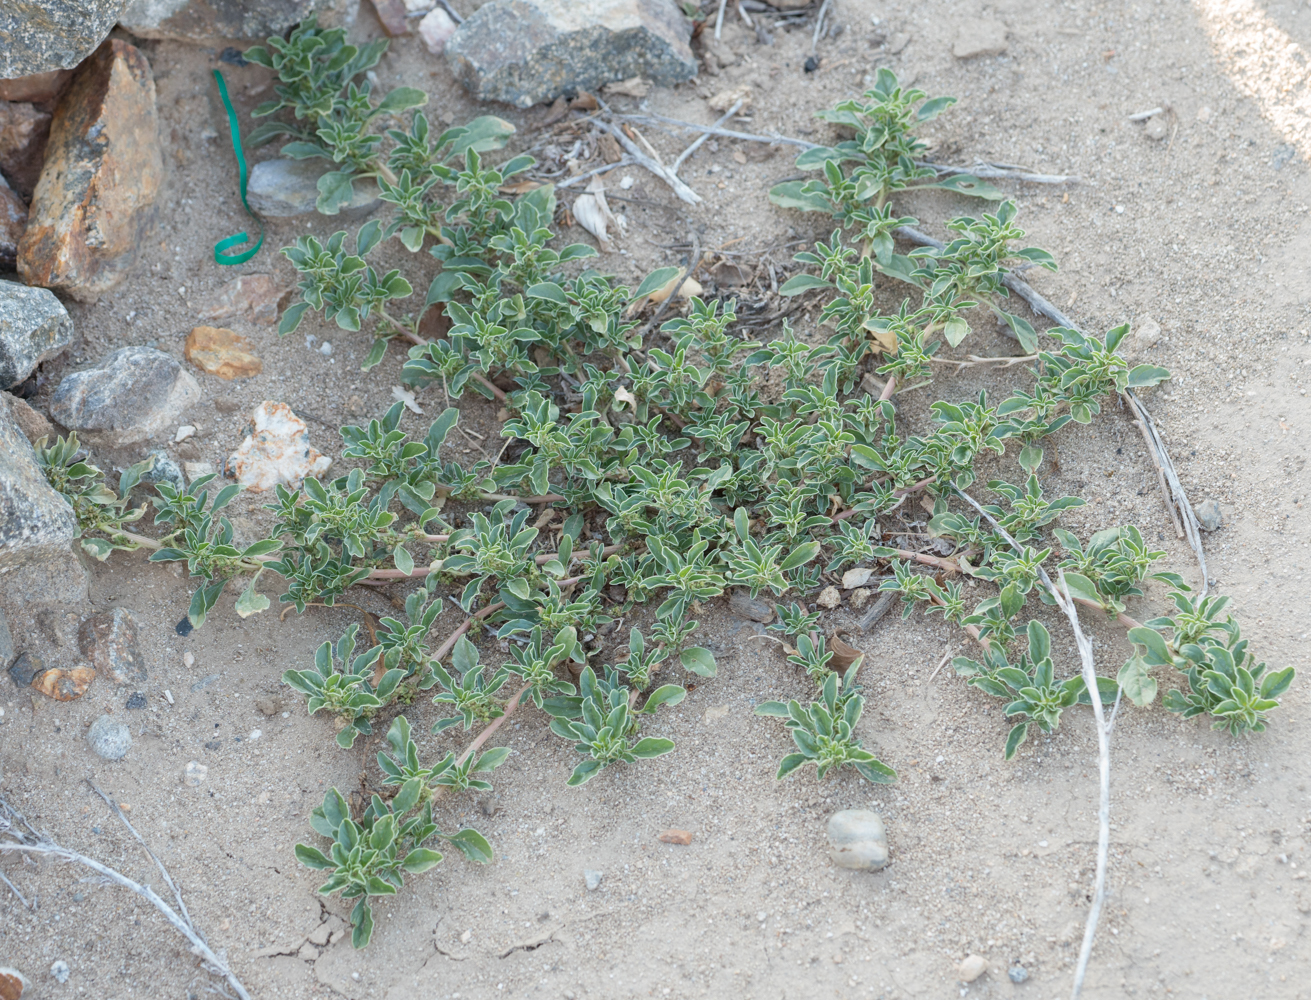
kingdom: Plantae
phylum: Tracheophyta
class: Magnoliopsida
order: Caryophyllales
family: Amaranthaceae
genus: Amaranthus
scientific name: Amaranthus albus
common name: White pigweed
